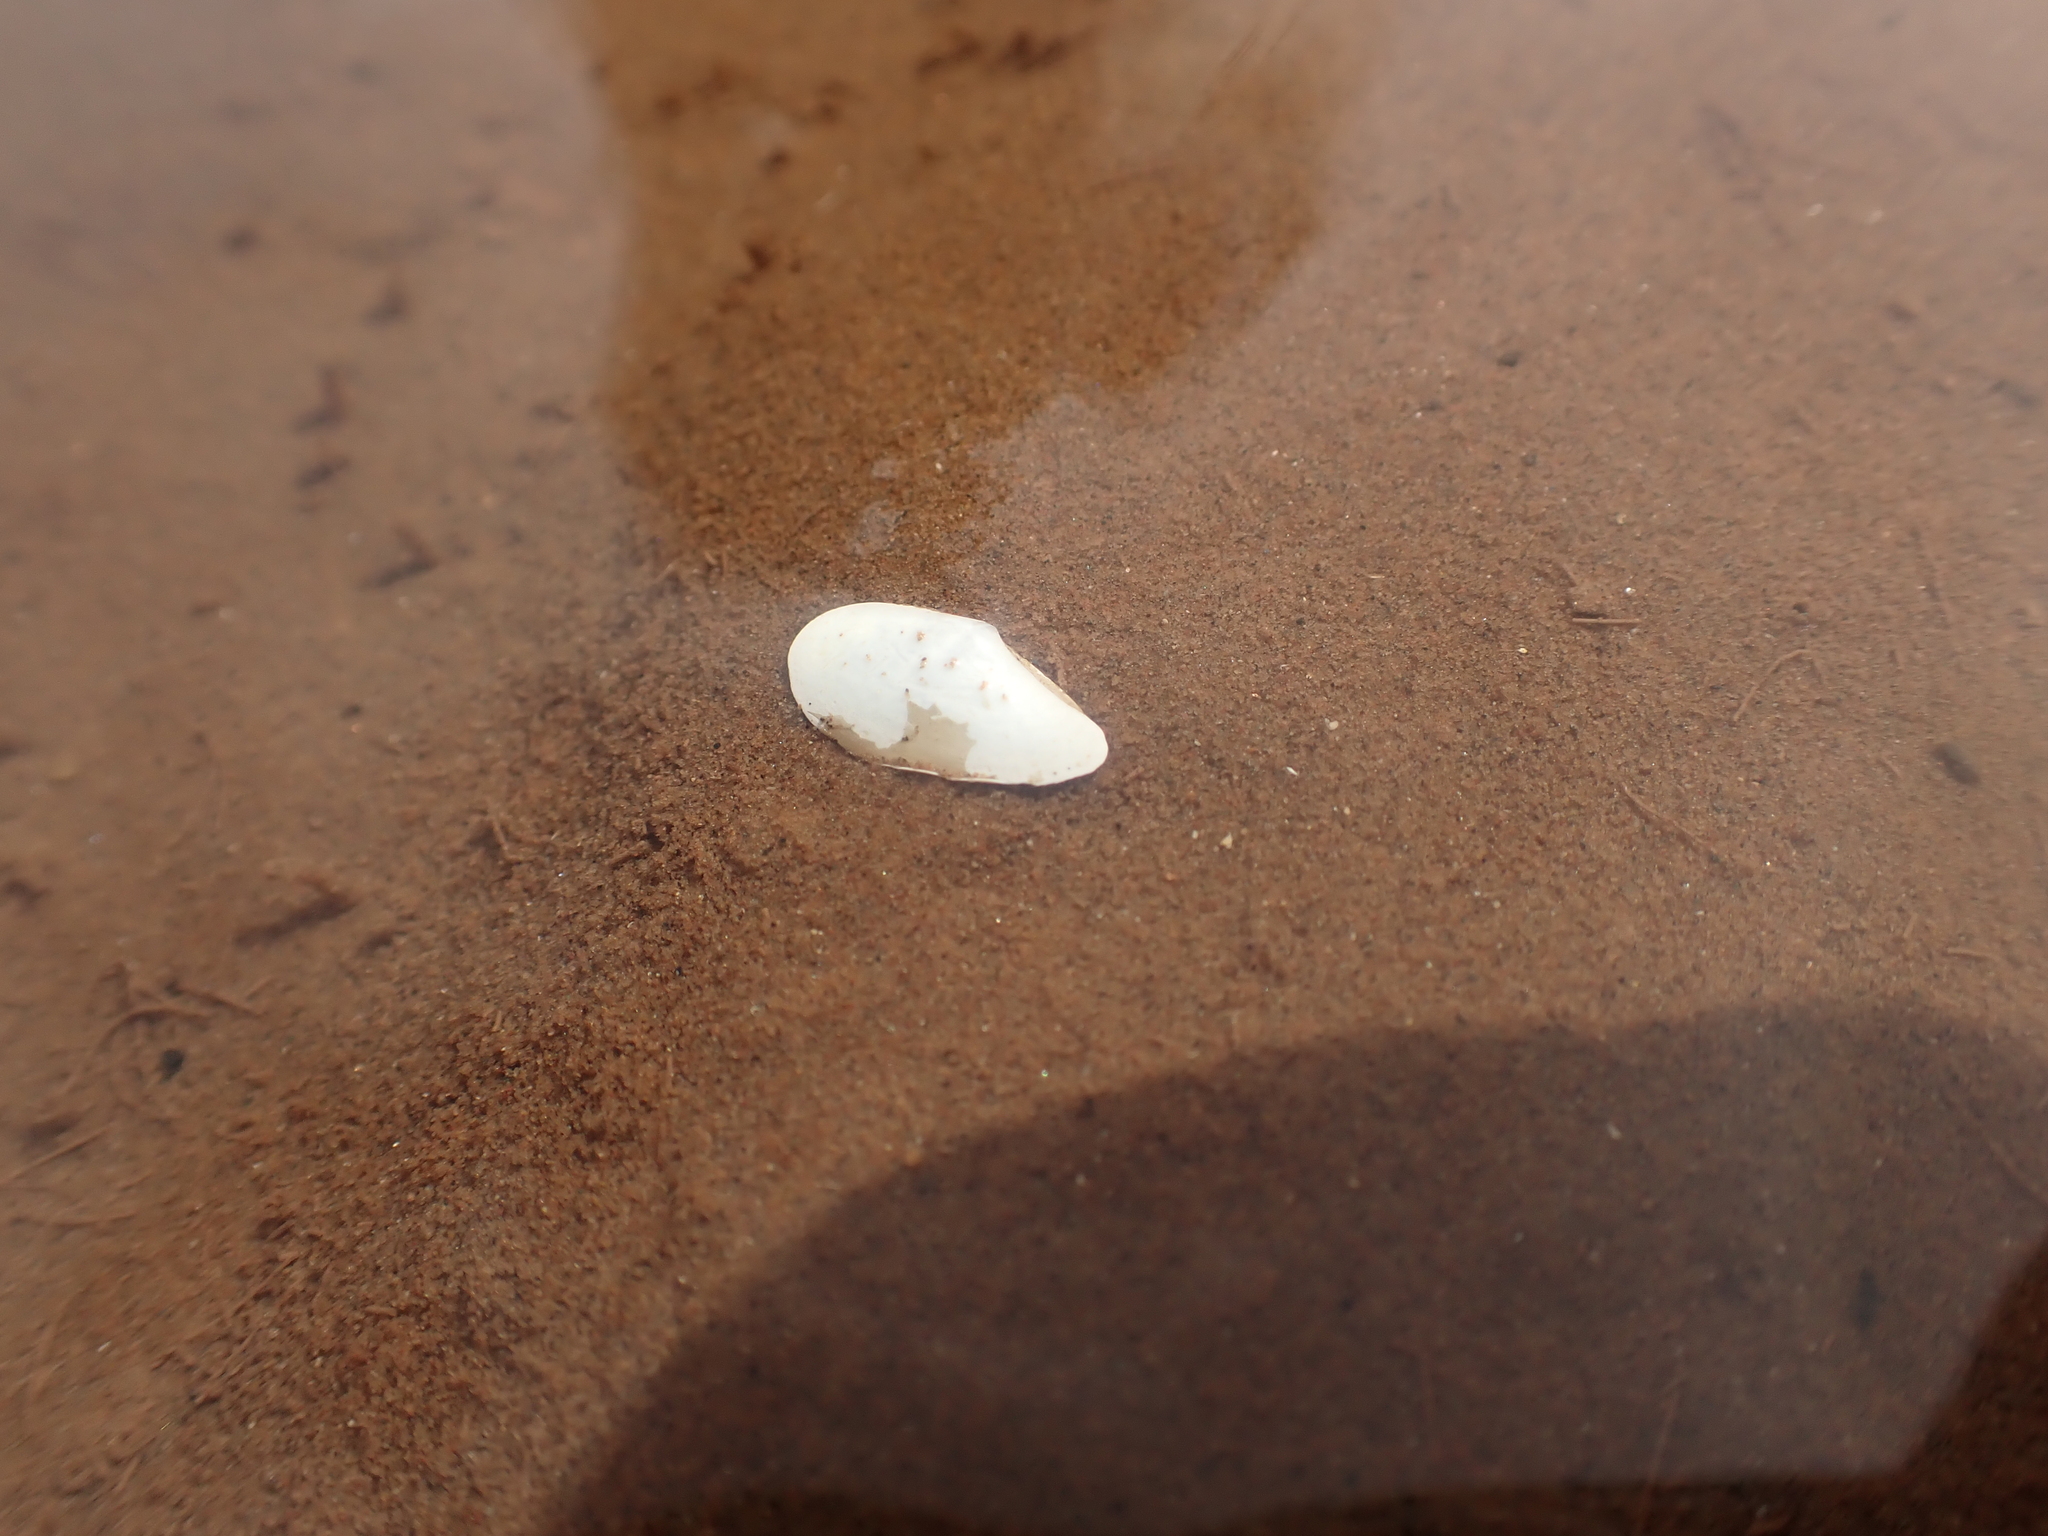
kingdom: Animalia
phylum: Mollusca
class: Bivalvia
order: Nuculanida
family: Yoldiidae
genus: Yoldia
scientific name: Yoldia limatula
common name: File yoldia
